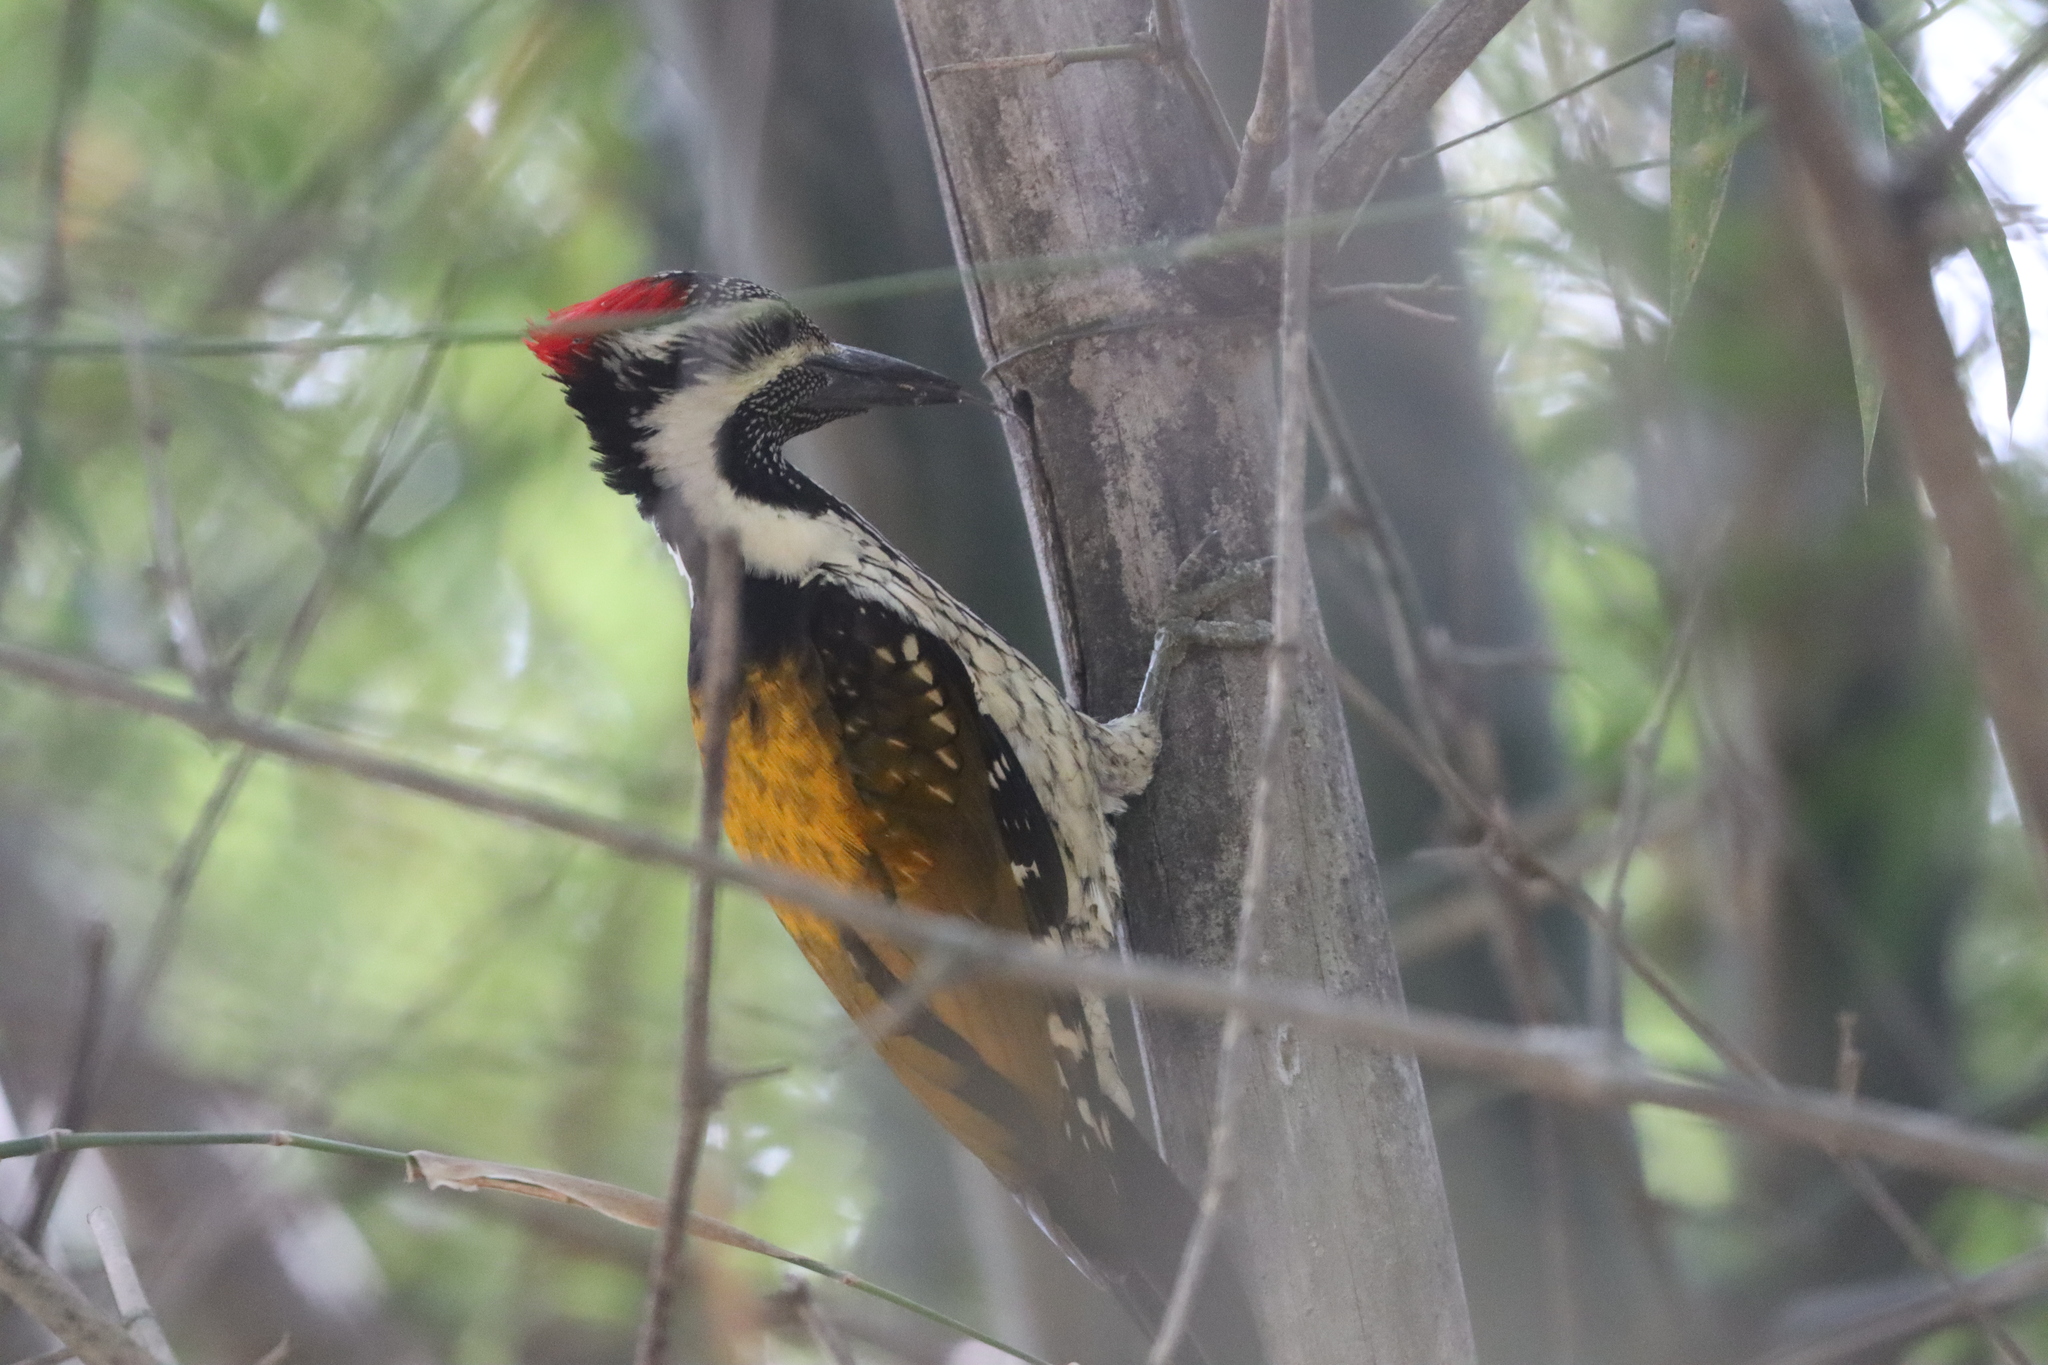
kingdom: Animalia
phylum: Chordata
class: Aves
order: Piciformes
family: Picidae
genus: Dinopium
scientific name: Dinopium benghalense
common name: Black-rumped flameback
